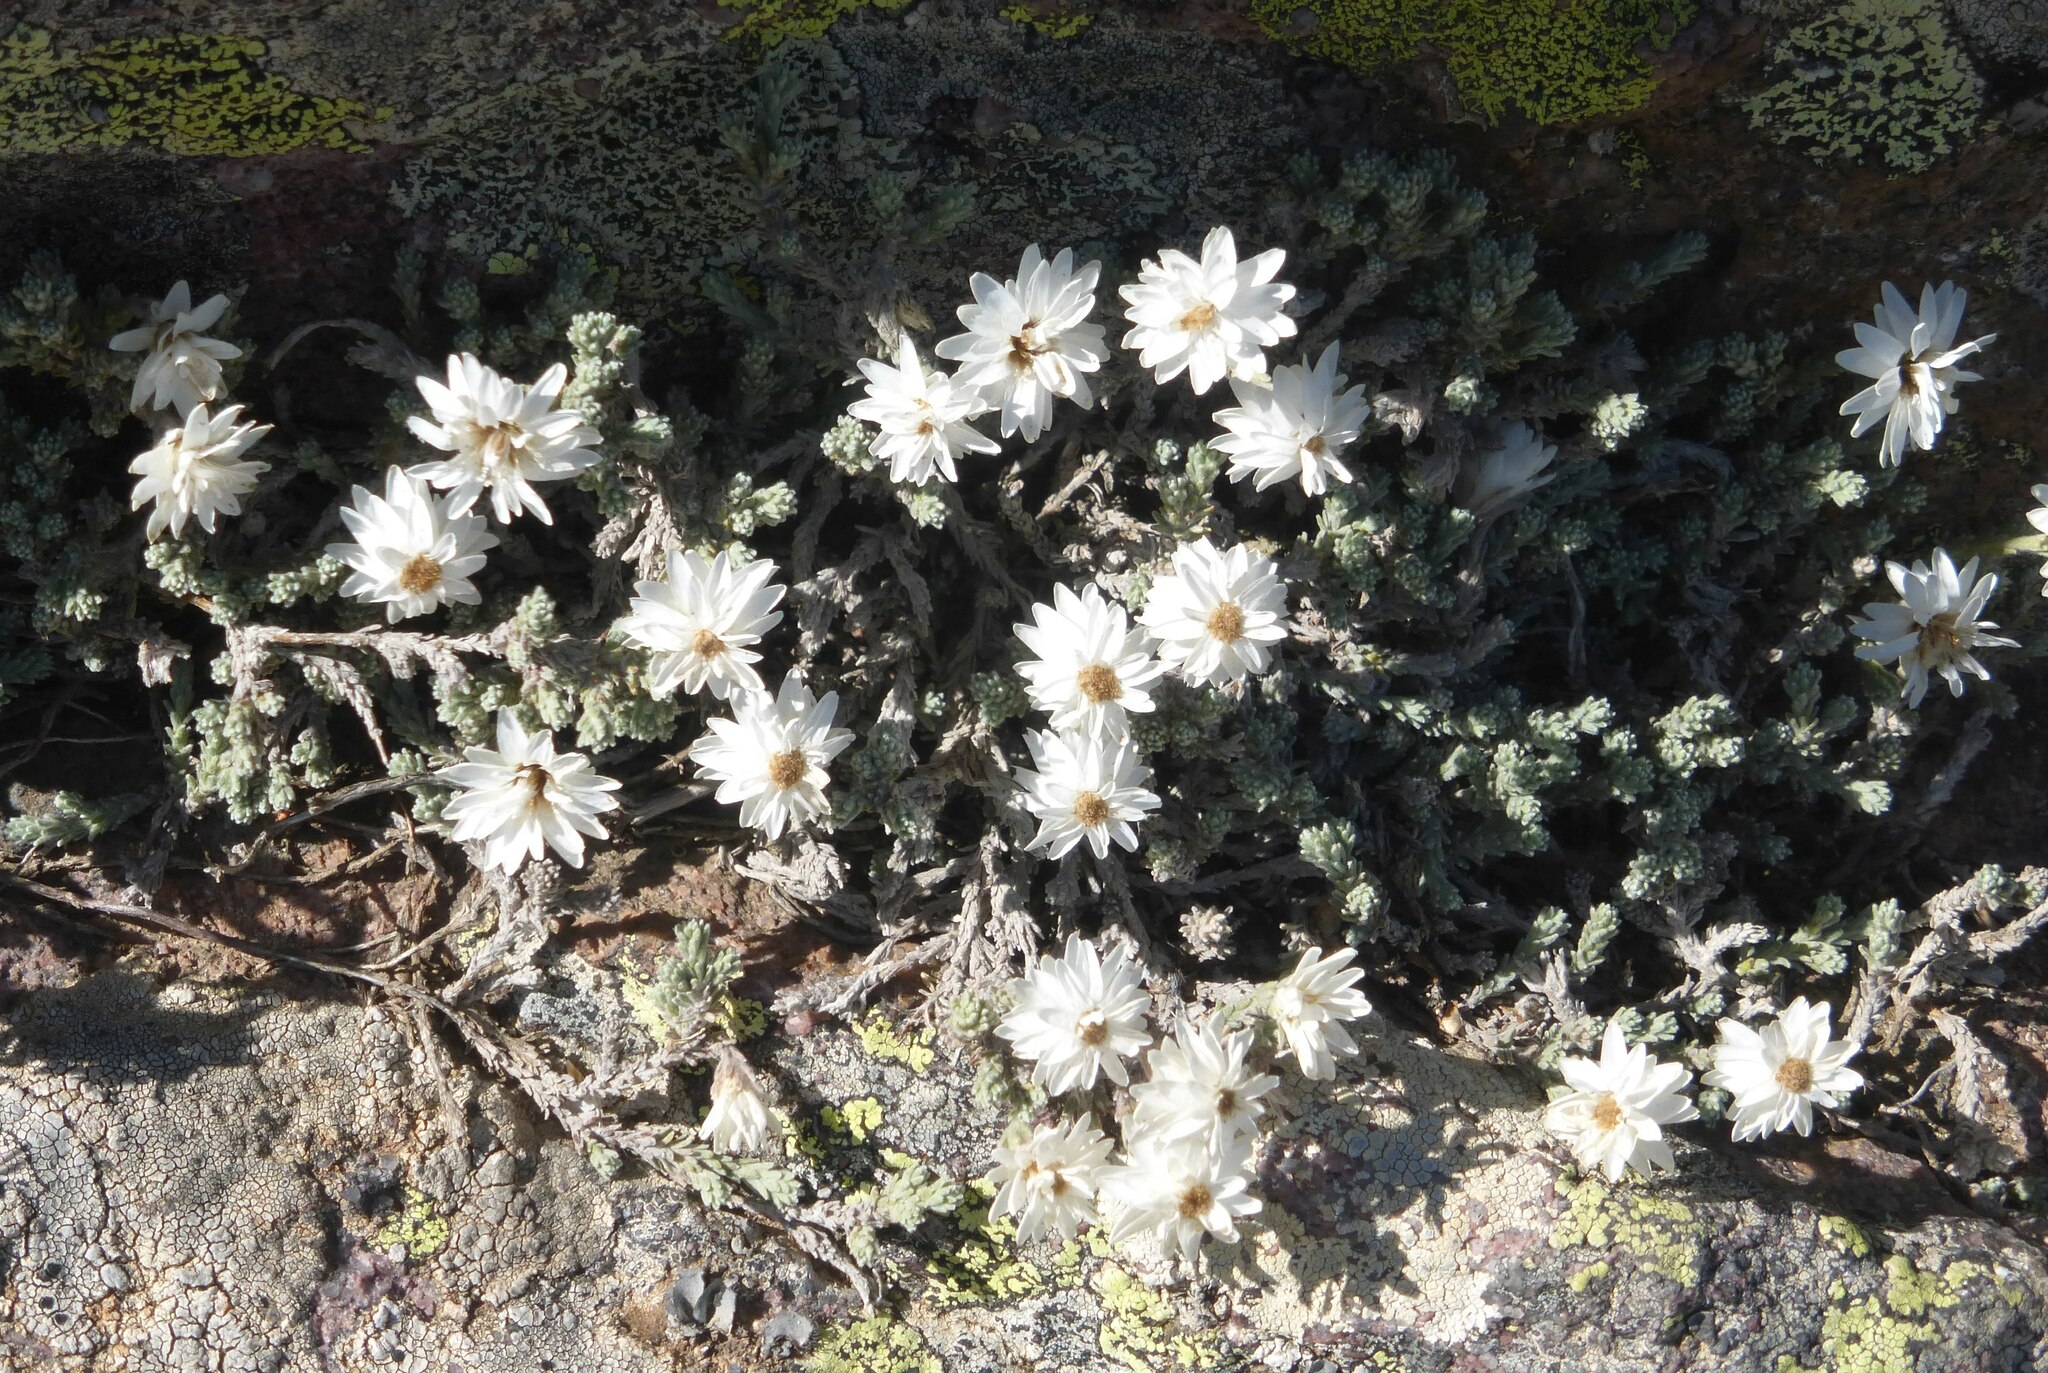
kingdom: Plantae
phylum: Tracheophyta
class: Magnoliopsida
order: Asterales
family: Asteraceae
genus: Castroviejoa
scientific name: Castroviejoa frigida
